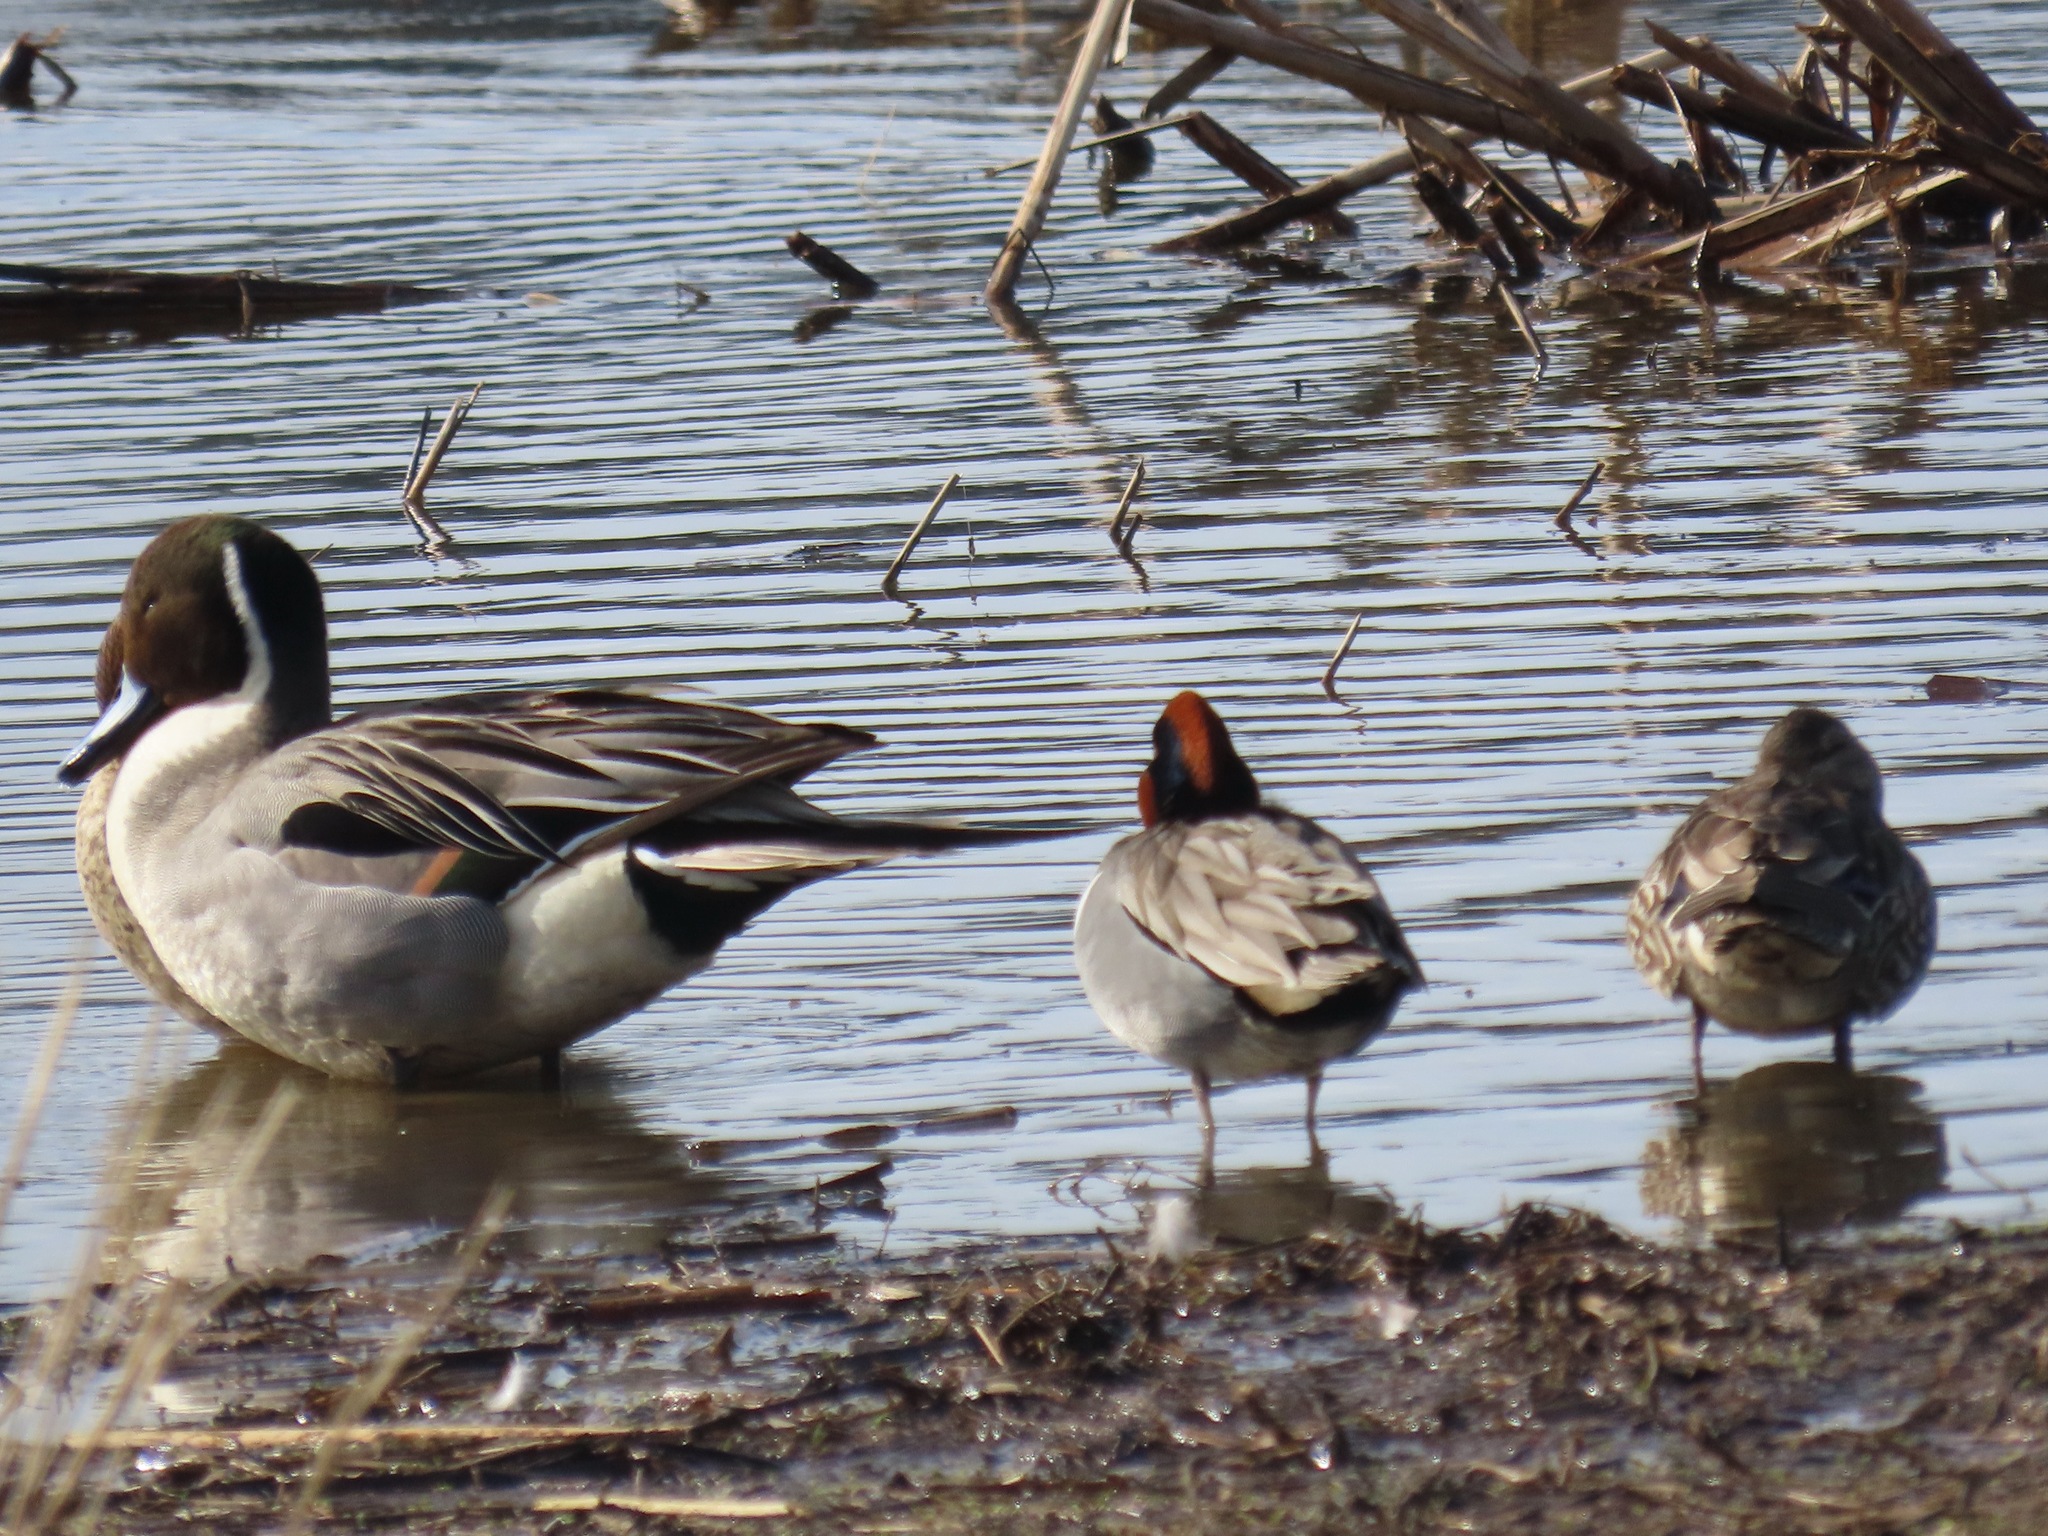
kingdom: Animalia
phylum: Chordata
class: Aves
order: Anseriformes
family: Anatidae
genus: Anas
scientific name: Anas acuta
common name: Northern pintail
